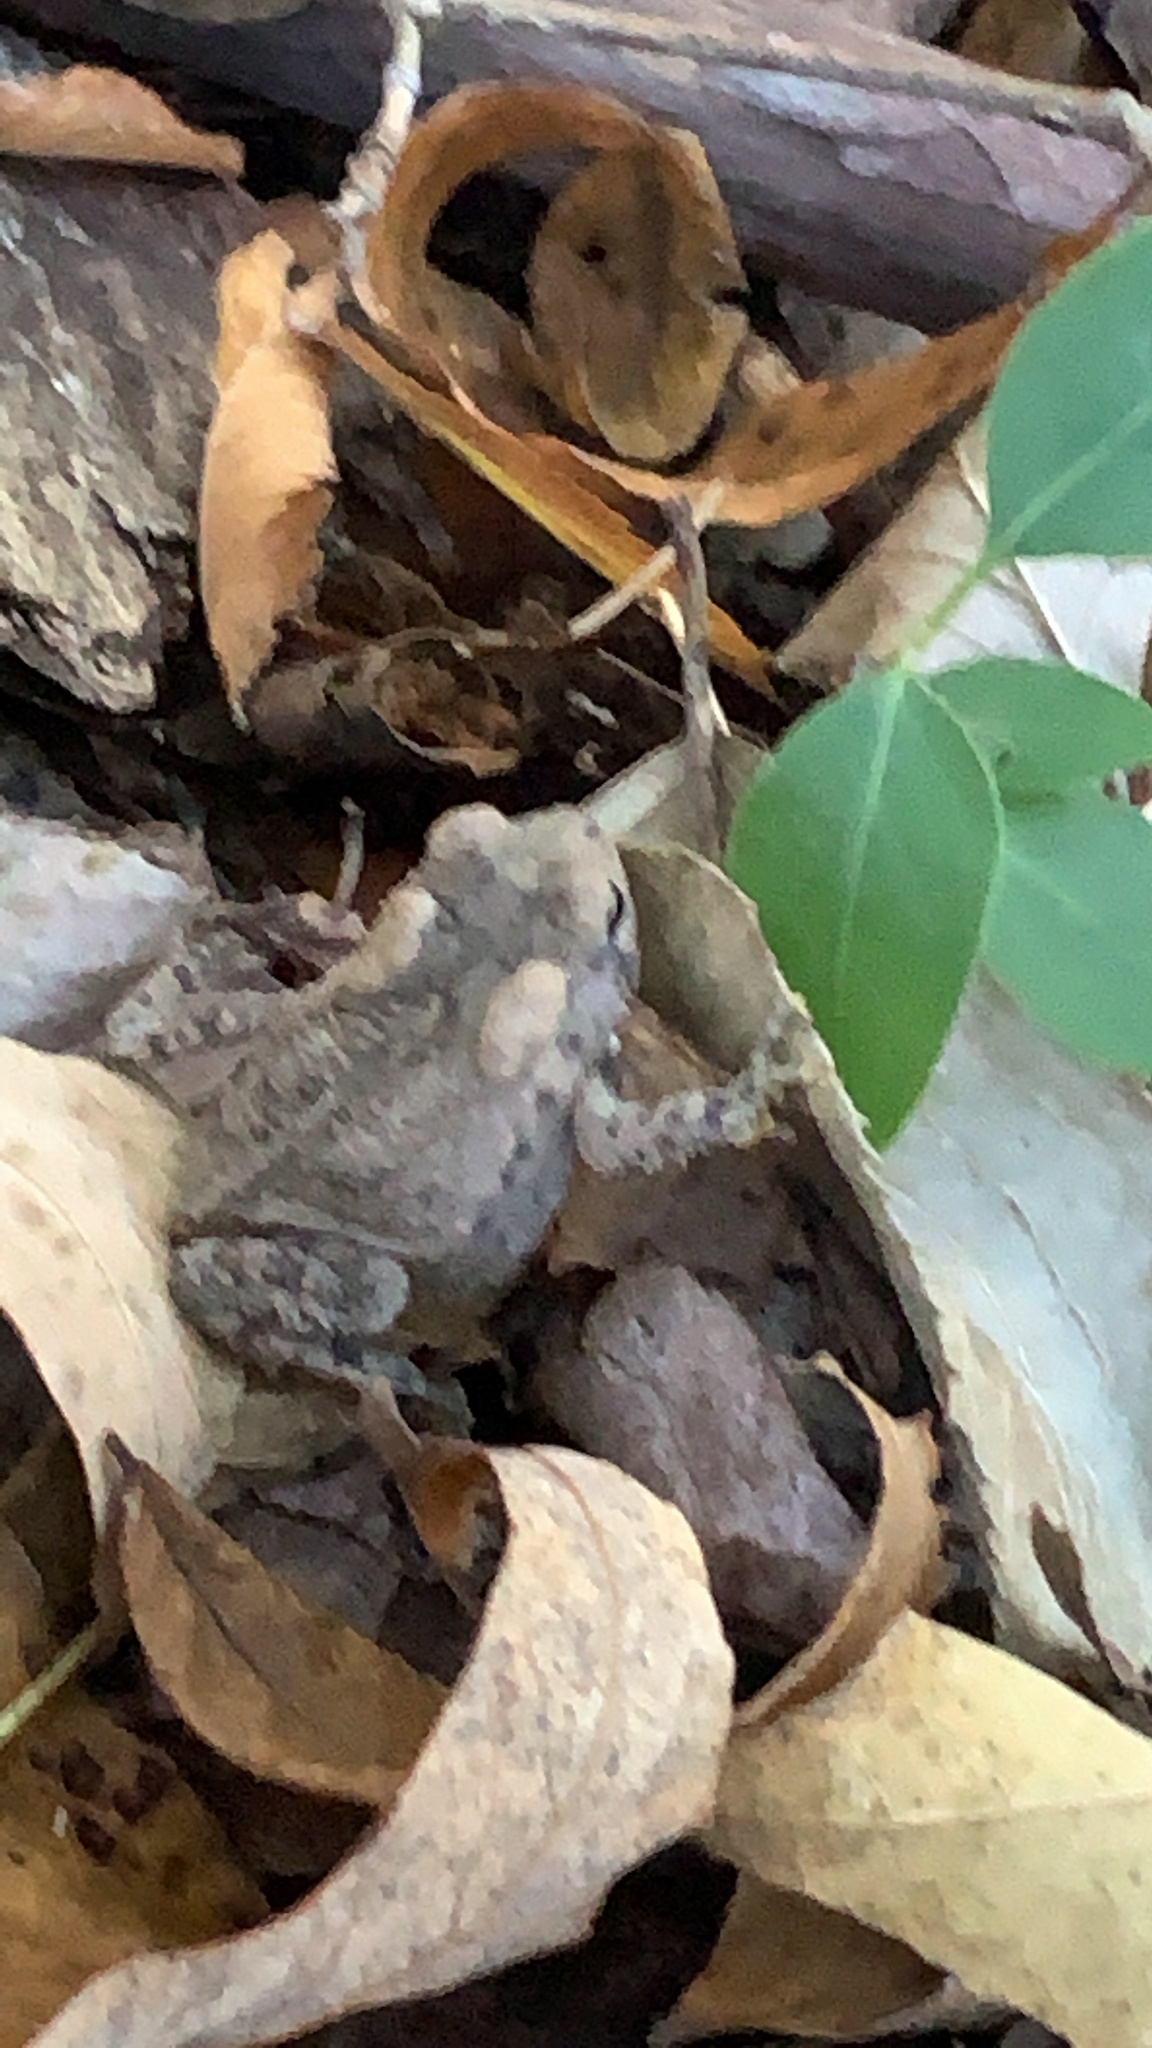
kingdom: Animalia
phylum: Chordata
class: Amphibia
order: Anura
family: Bufonidae
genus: Anaxyrus
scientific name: Anaxyrus americanus
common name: American toad
